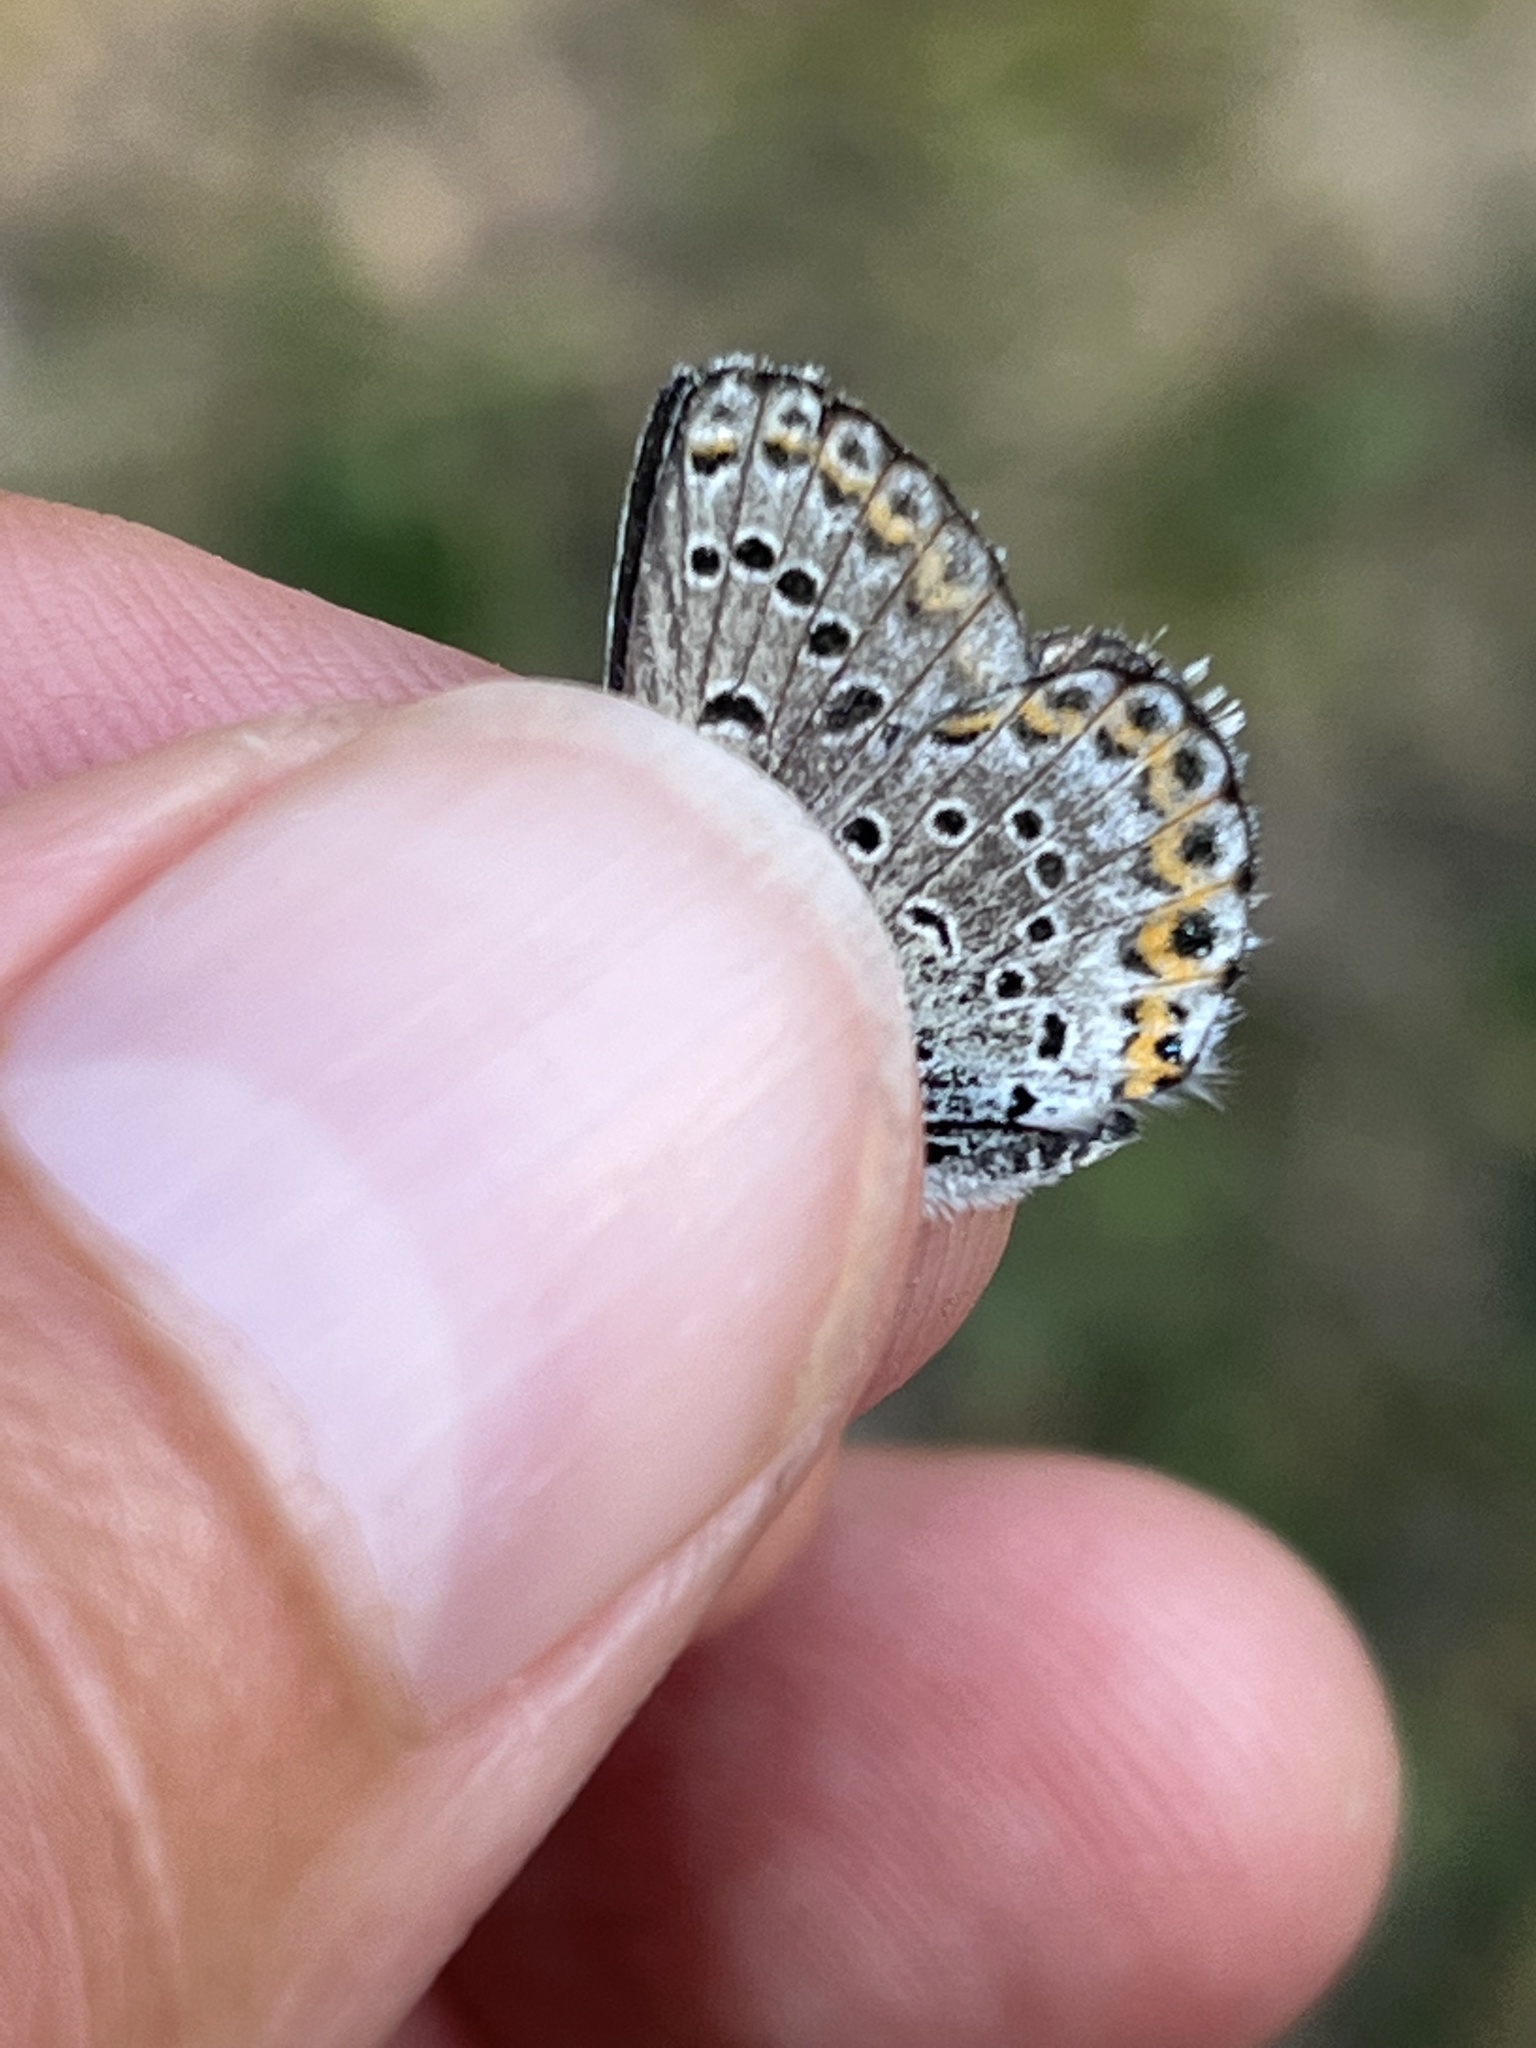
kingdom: Animalia
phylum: Arthropoda
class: Insecta
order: Lepidoptera
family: Lycaenidae
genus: Lycaeides
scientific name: Lycaeides idas
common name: Northern blue
